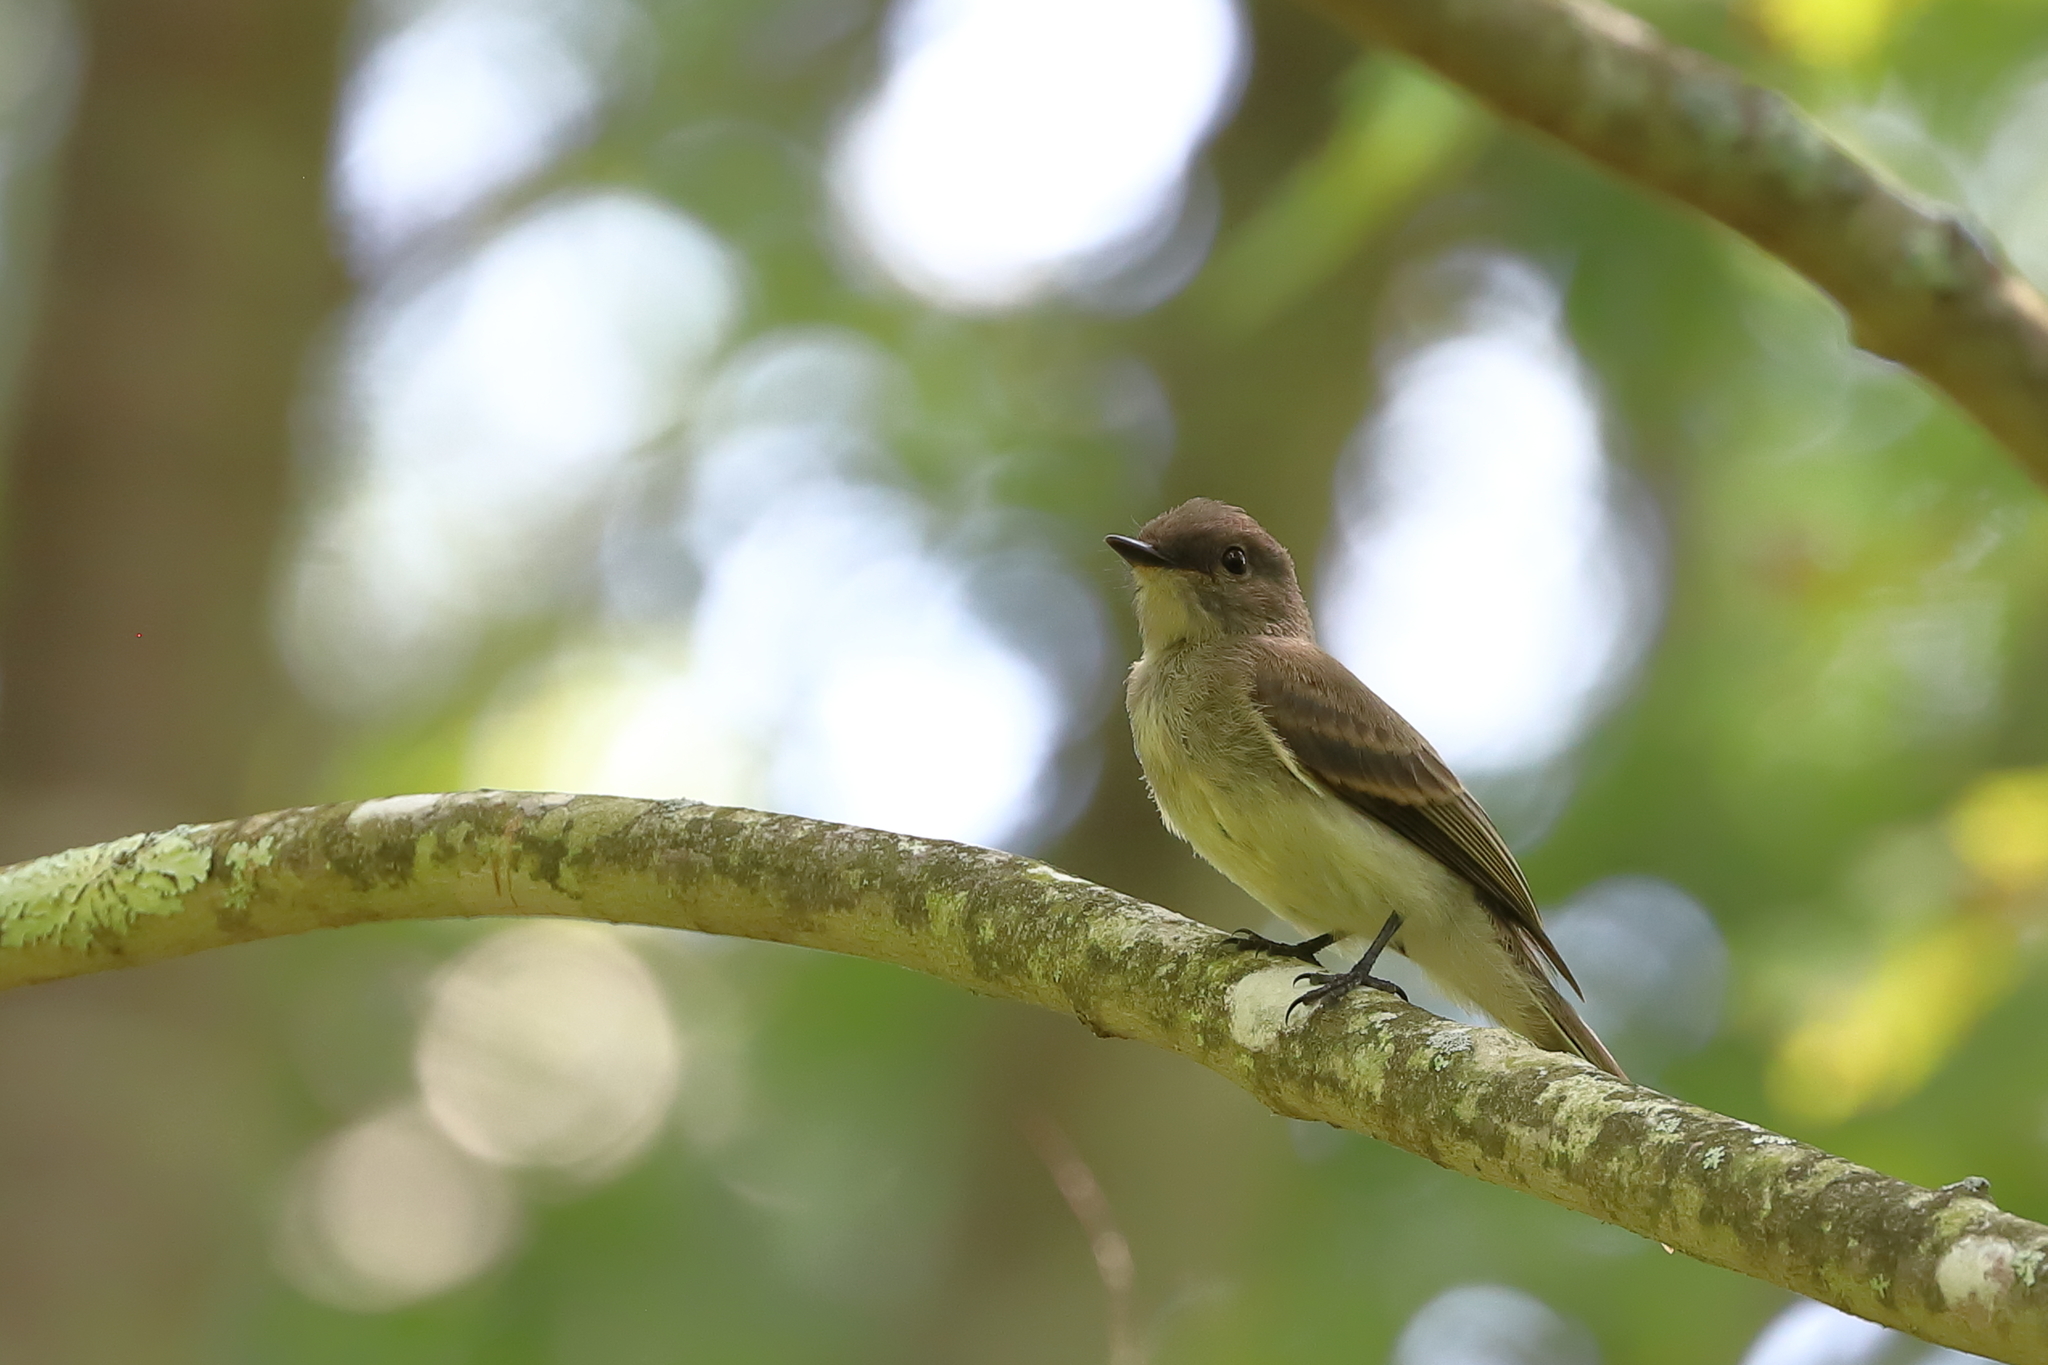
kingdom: Animalia
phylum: Chordata
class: Aves
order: Passeriformes
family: Tyrannidae
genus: Sayornis
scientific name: Sayornis phoebe
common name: Eastern phoebe
